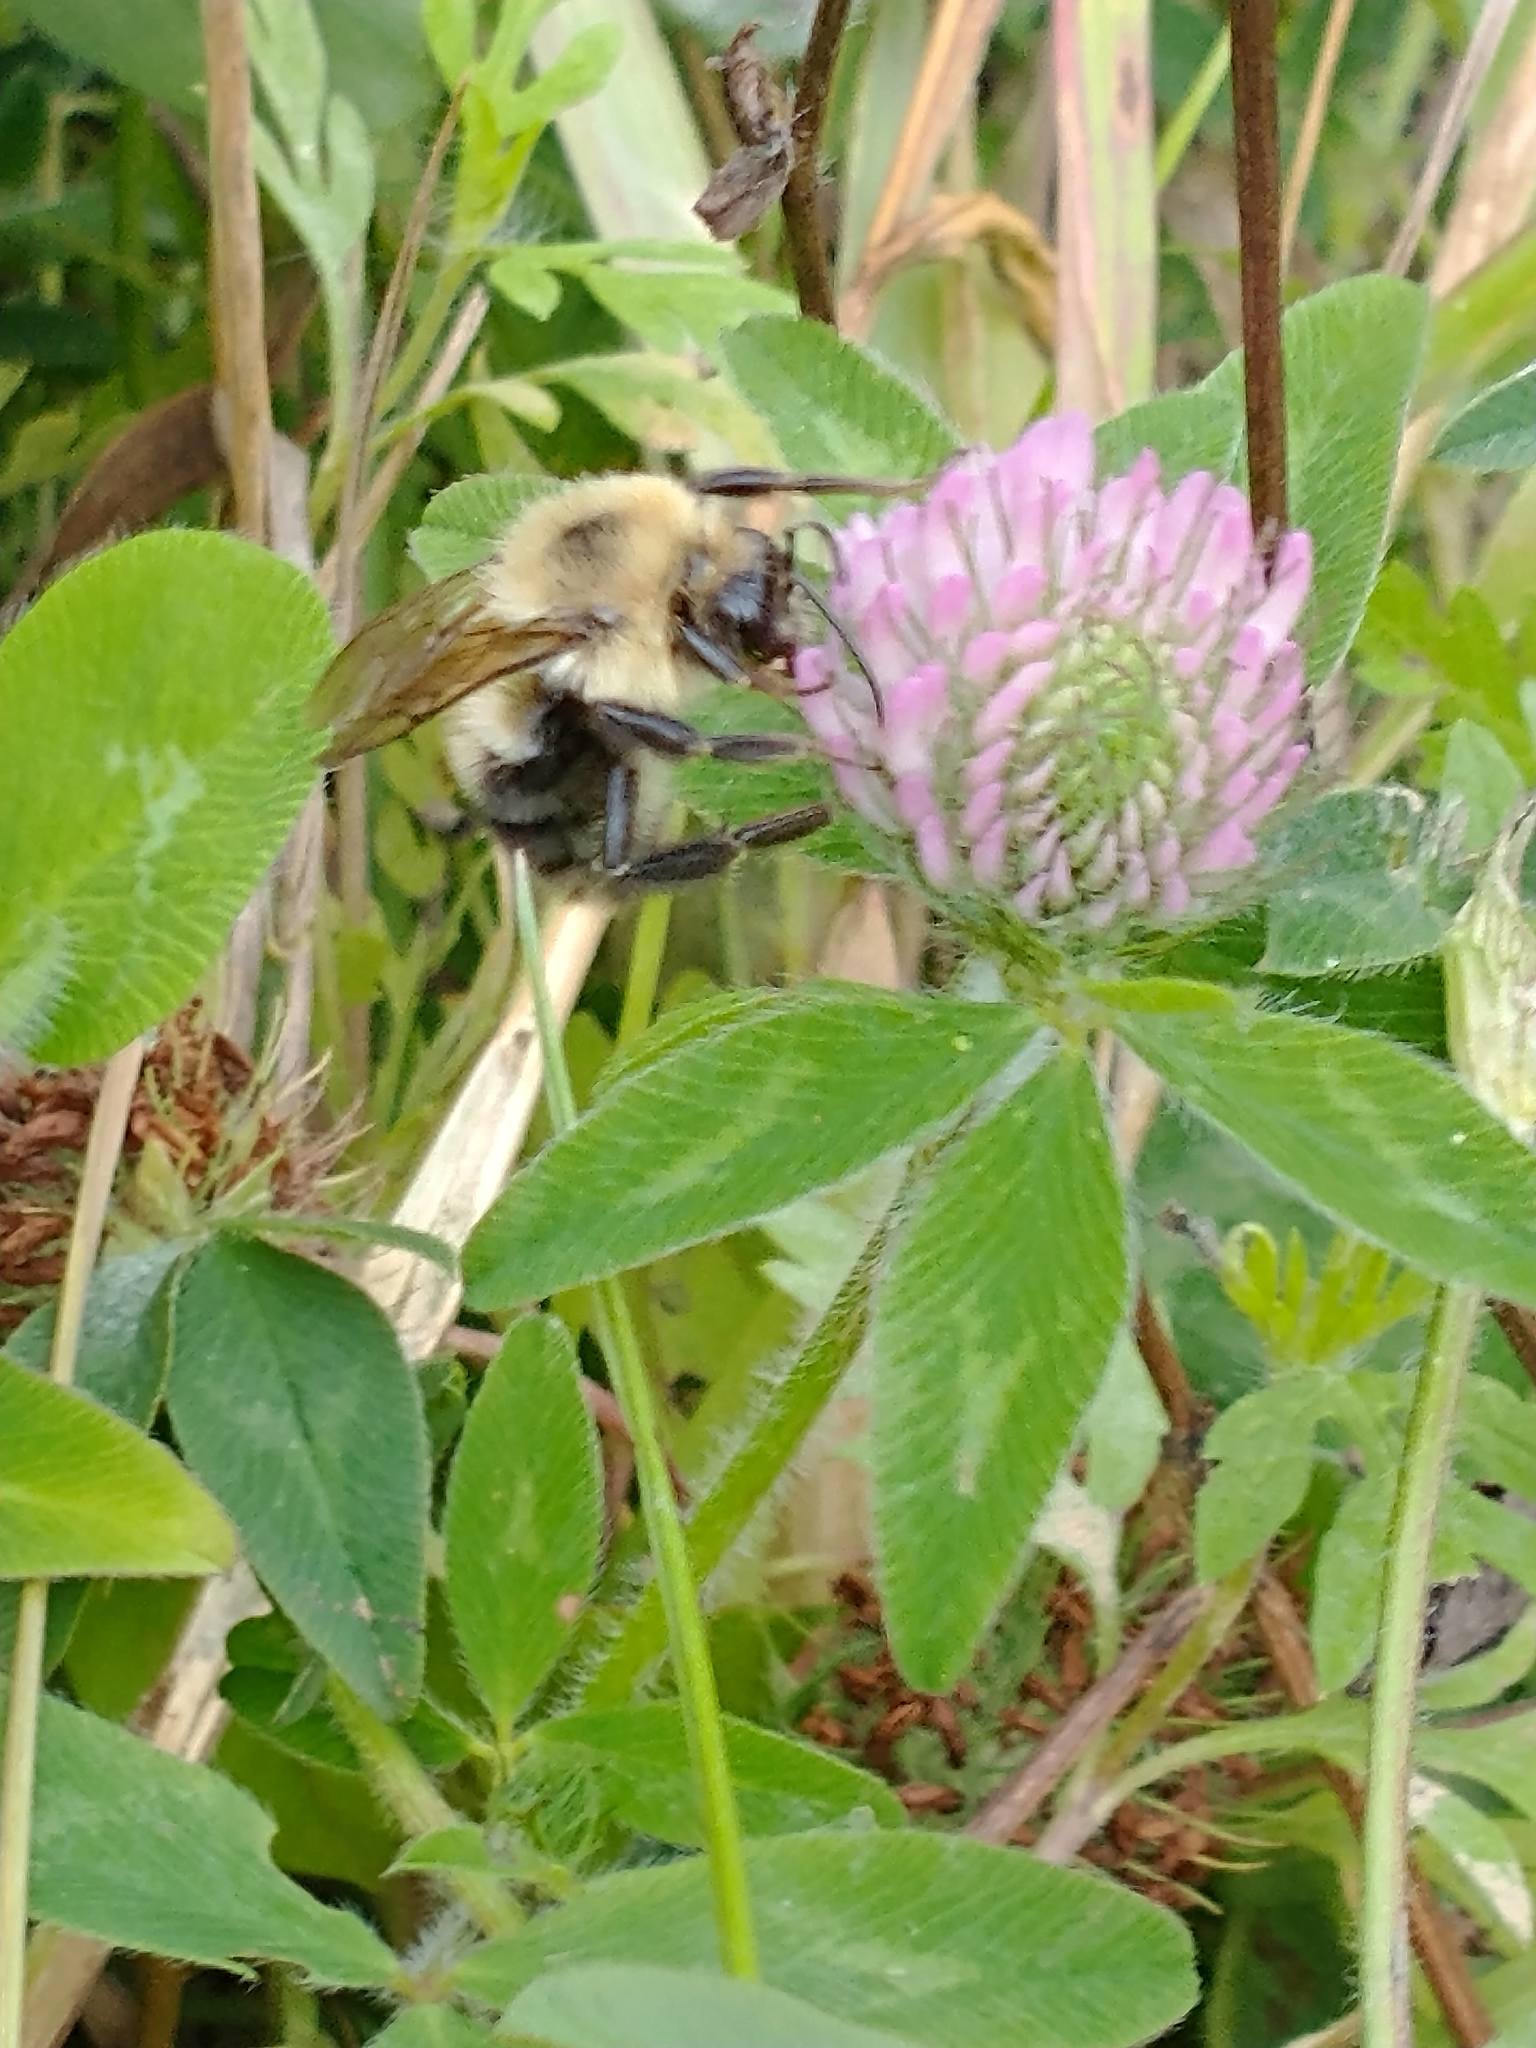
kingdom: Animalia
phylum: Arthropoda
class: Insecta
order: Hymenoptera
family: Apidae
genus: Bombus
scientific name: Bombus bimaculatus
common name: Two-spotted bumble bee
